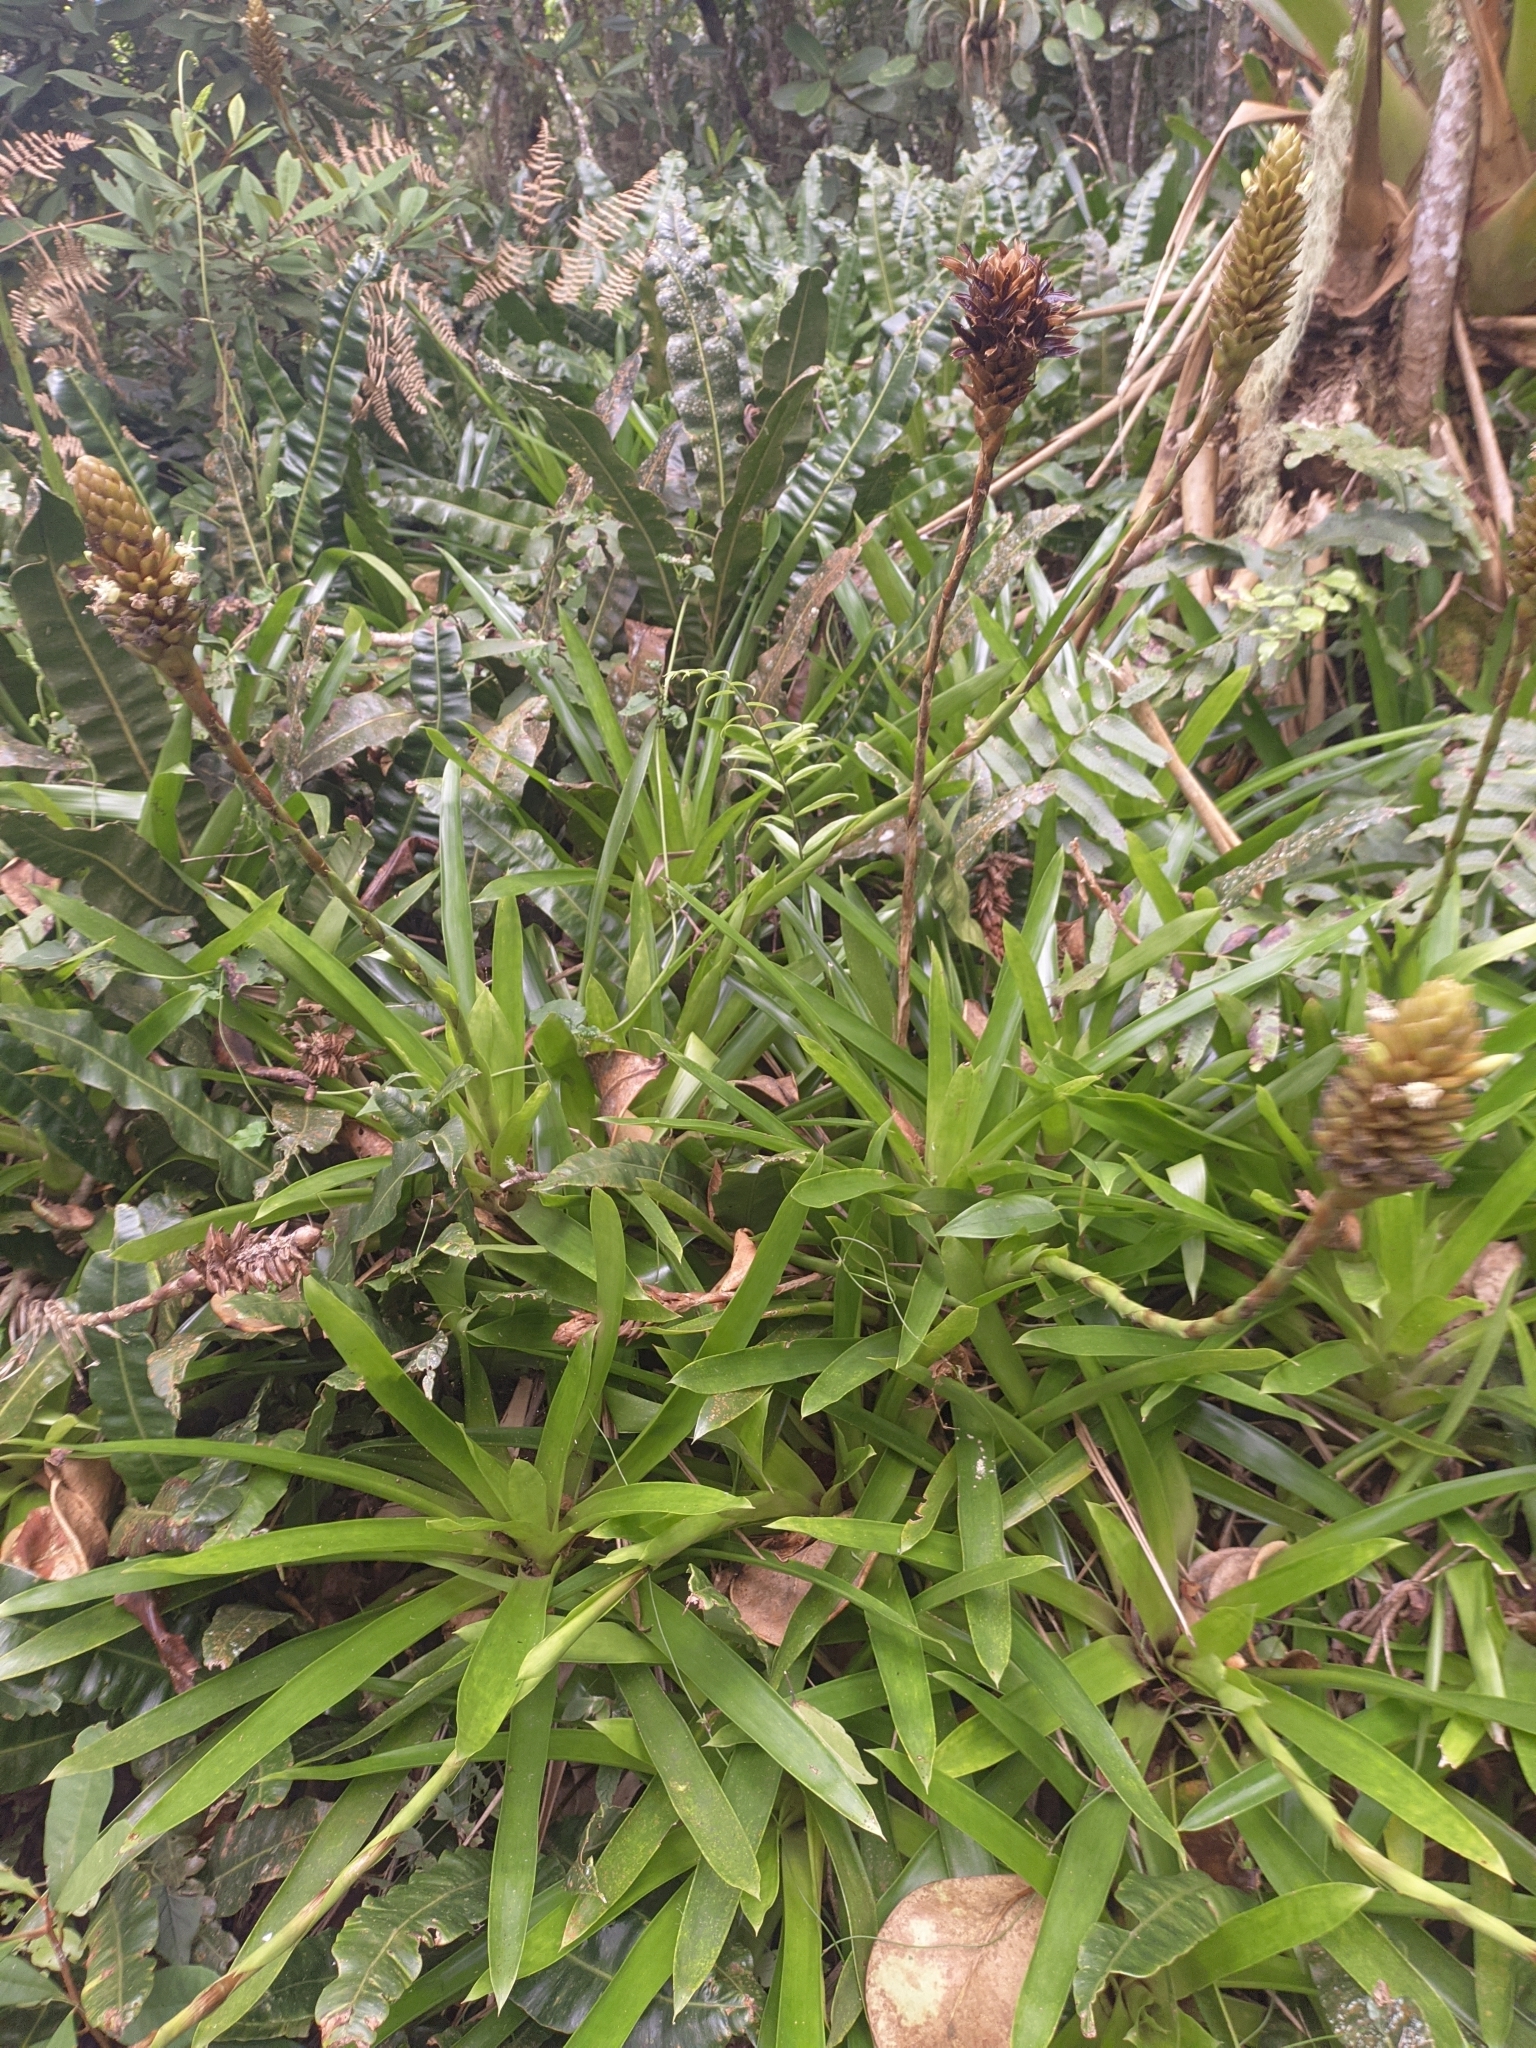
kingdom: Plantae
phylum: Tracheophyta
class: Liliopsida
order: Poales
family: Bromeliaceae
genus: Guzmania
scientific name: Guzmania coriostachya
